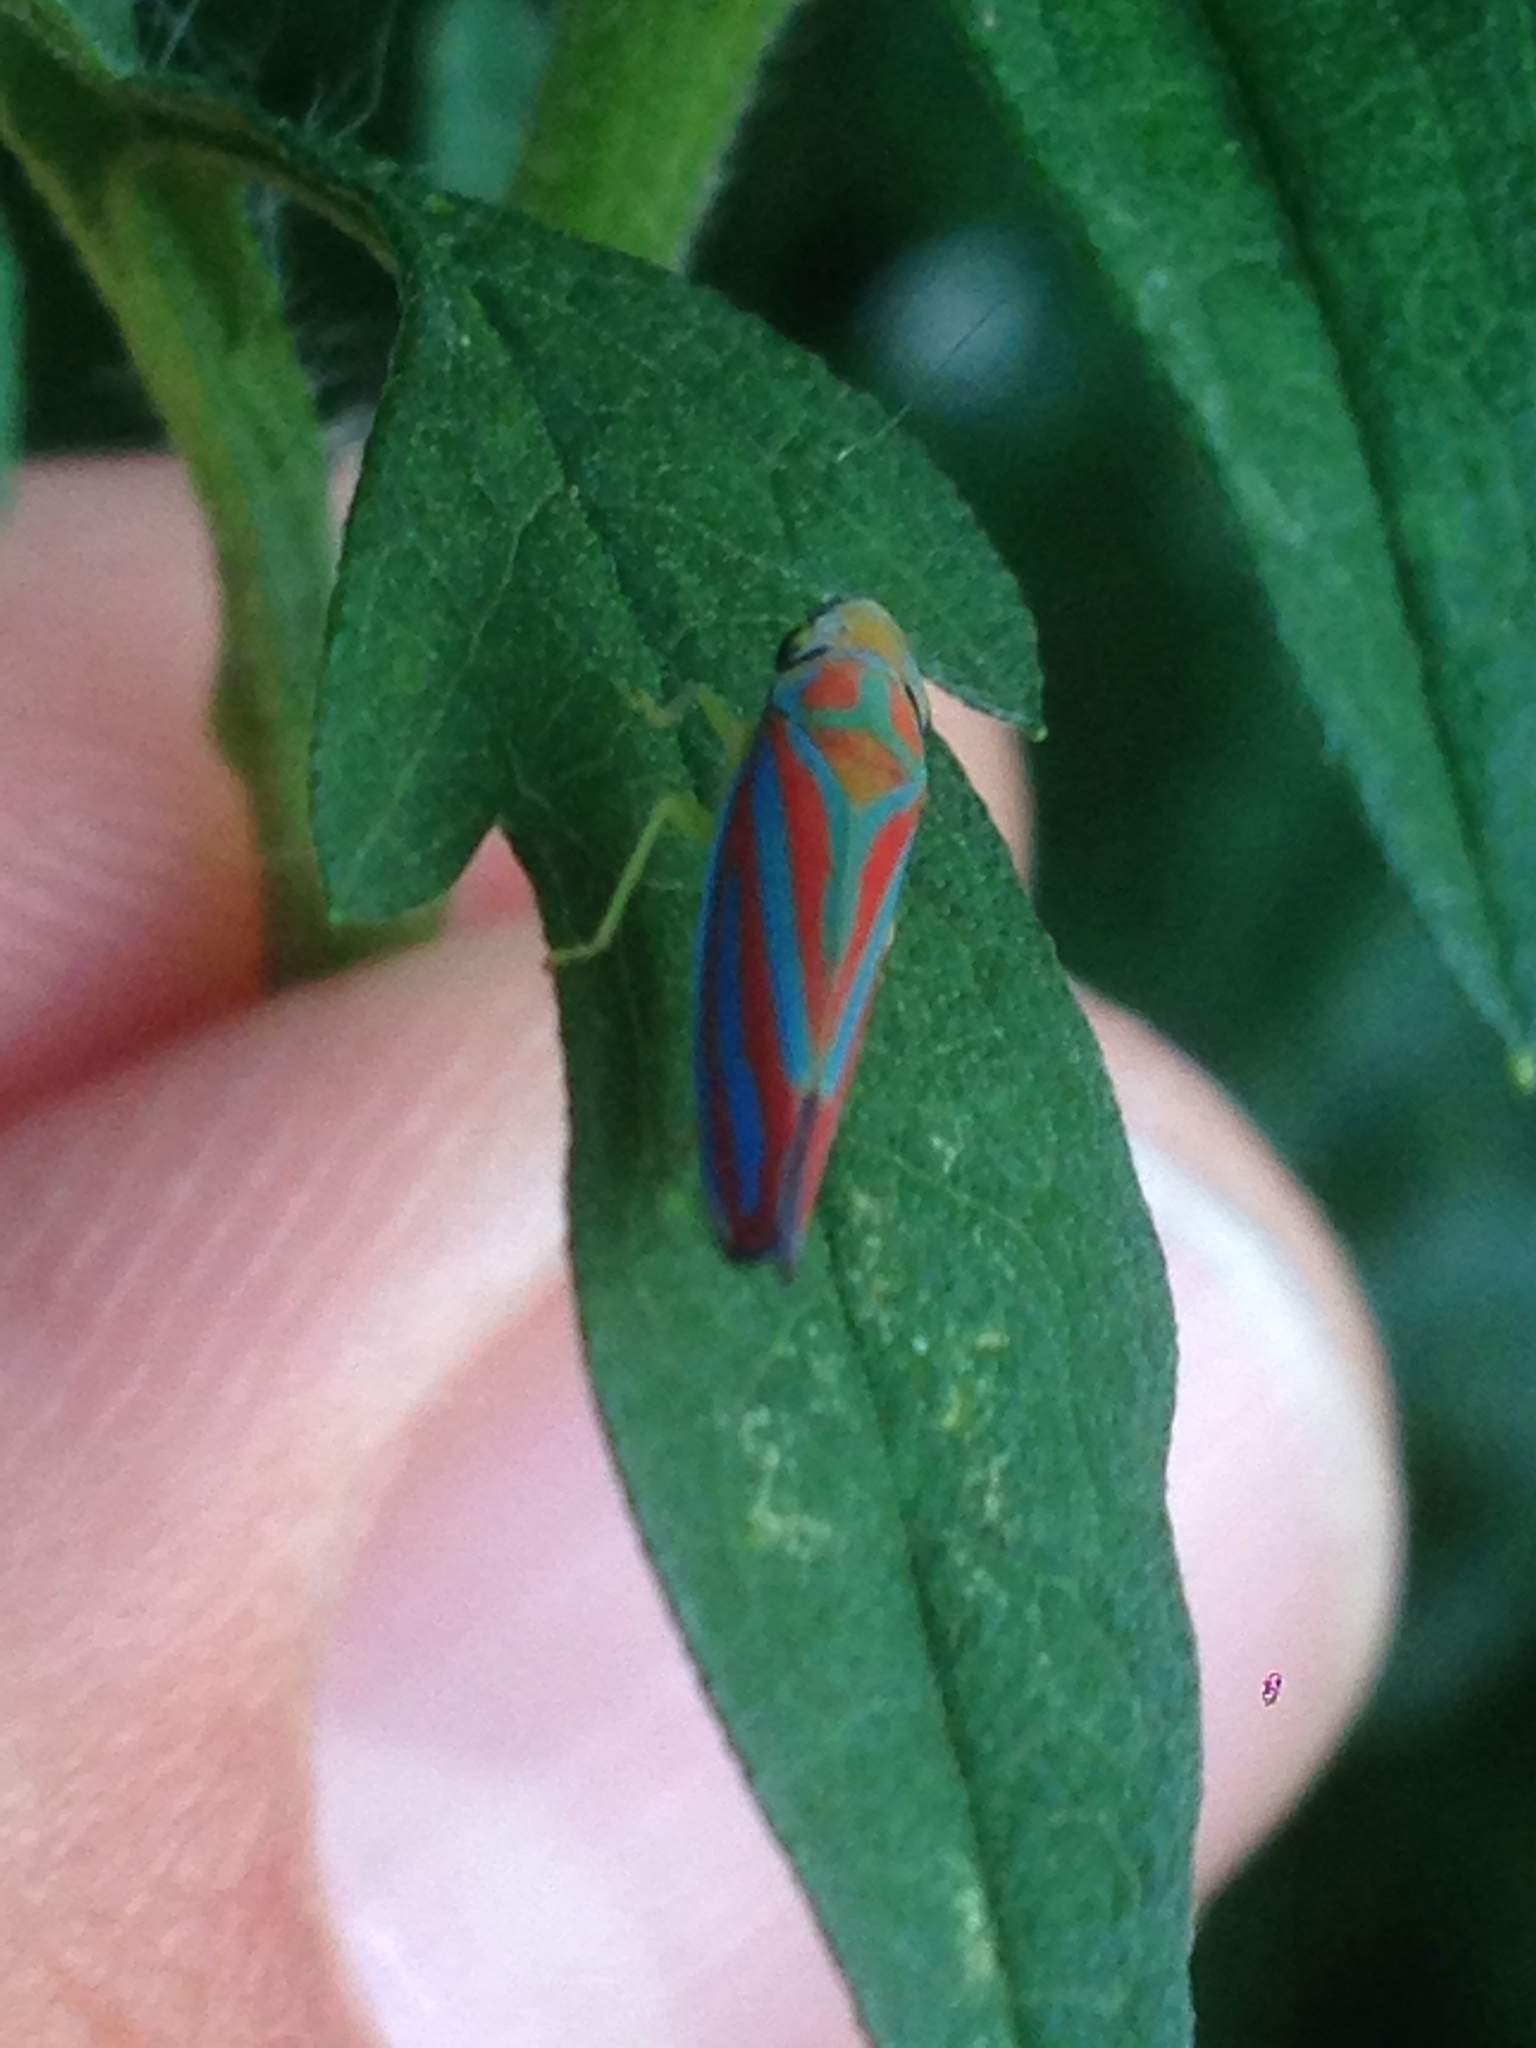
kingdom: Animalia
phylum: Arthropoda
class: Insecta
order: Hemiptera
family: Cicadellidae
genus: Graphocephala
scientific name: Graphocephala coccinea
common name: Candy-striped leafhopper
